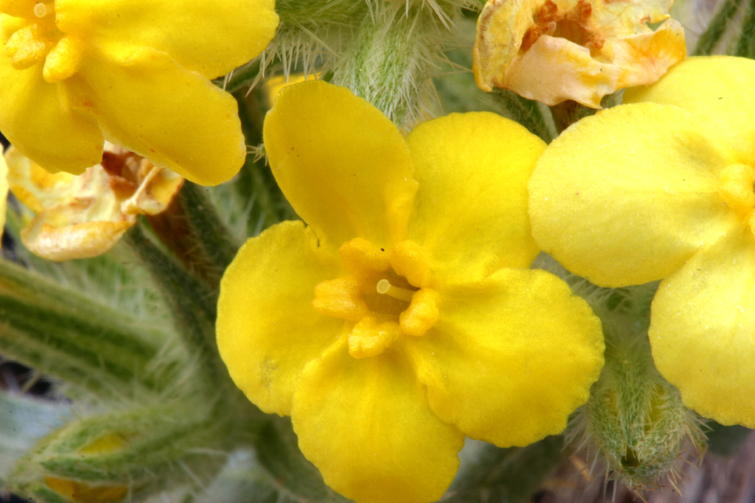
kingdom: Plantae
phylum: Tracheophyta
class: Magnoliopsida
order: Boraginales
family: Boraginaceae
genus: Oreocarya
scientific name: Oreocarya confertiflora
